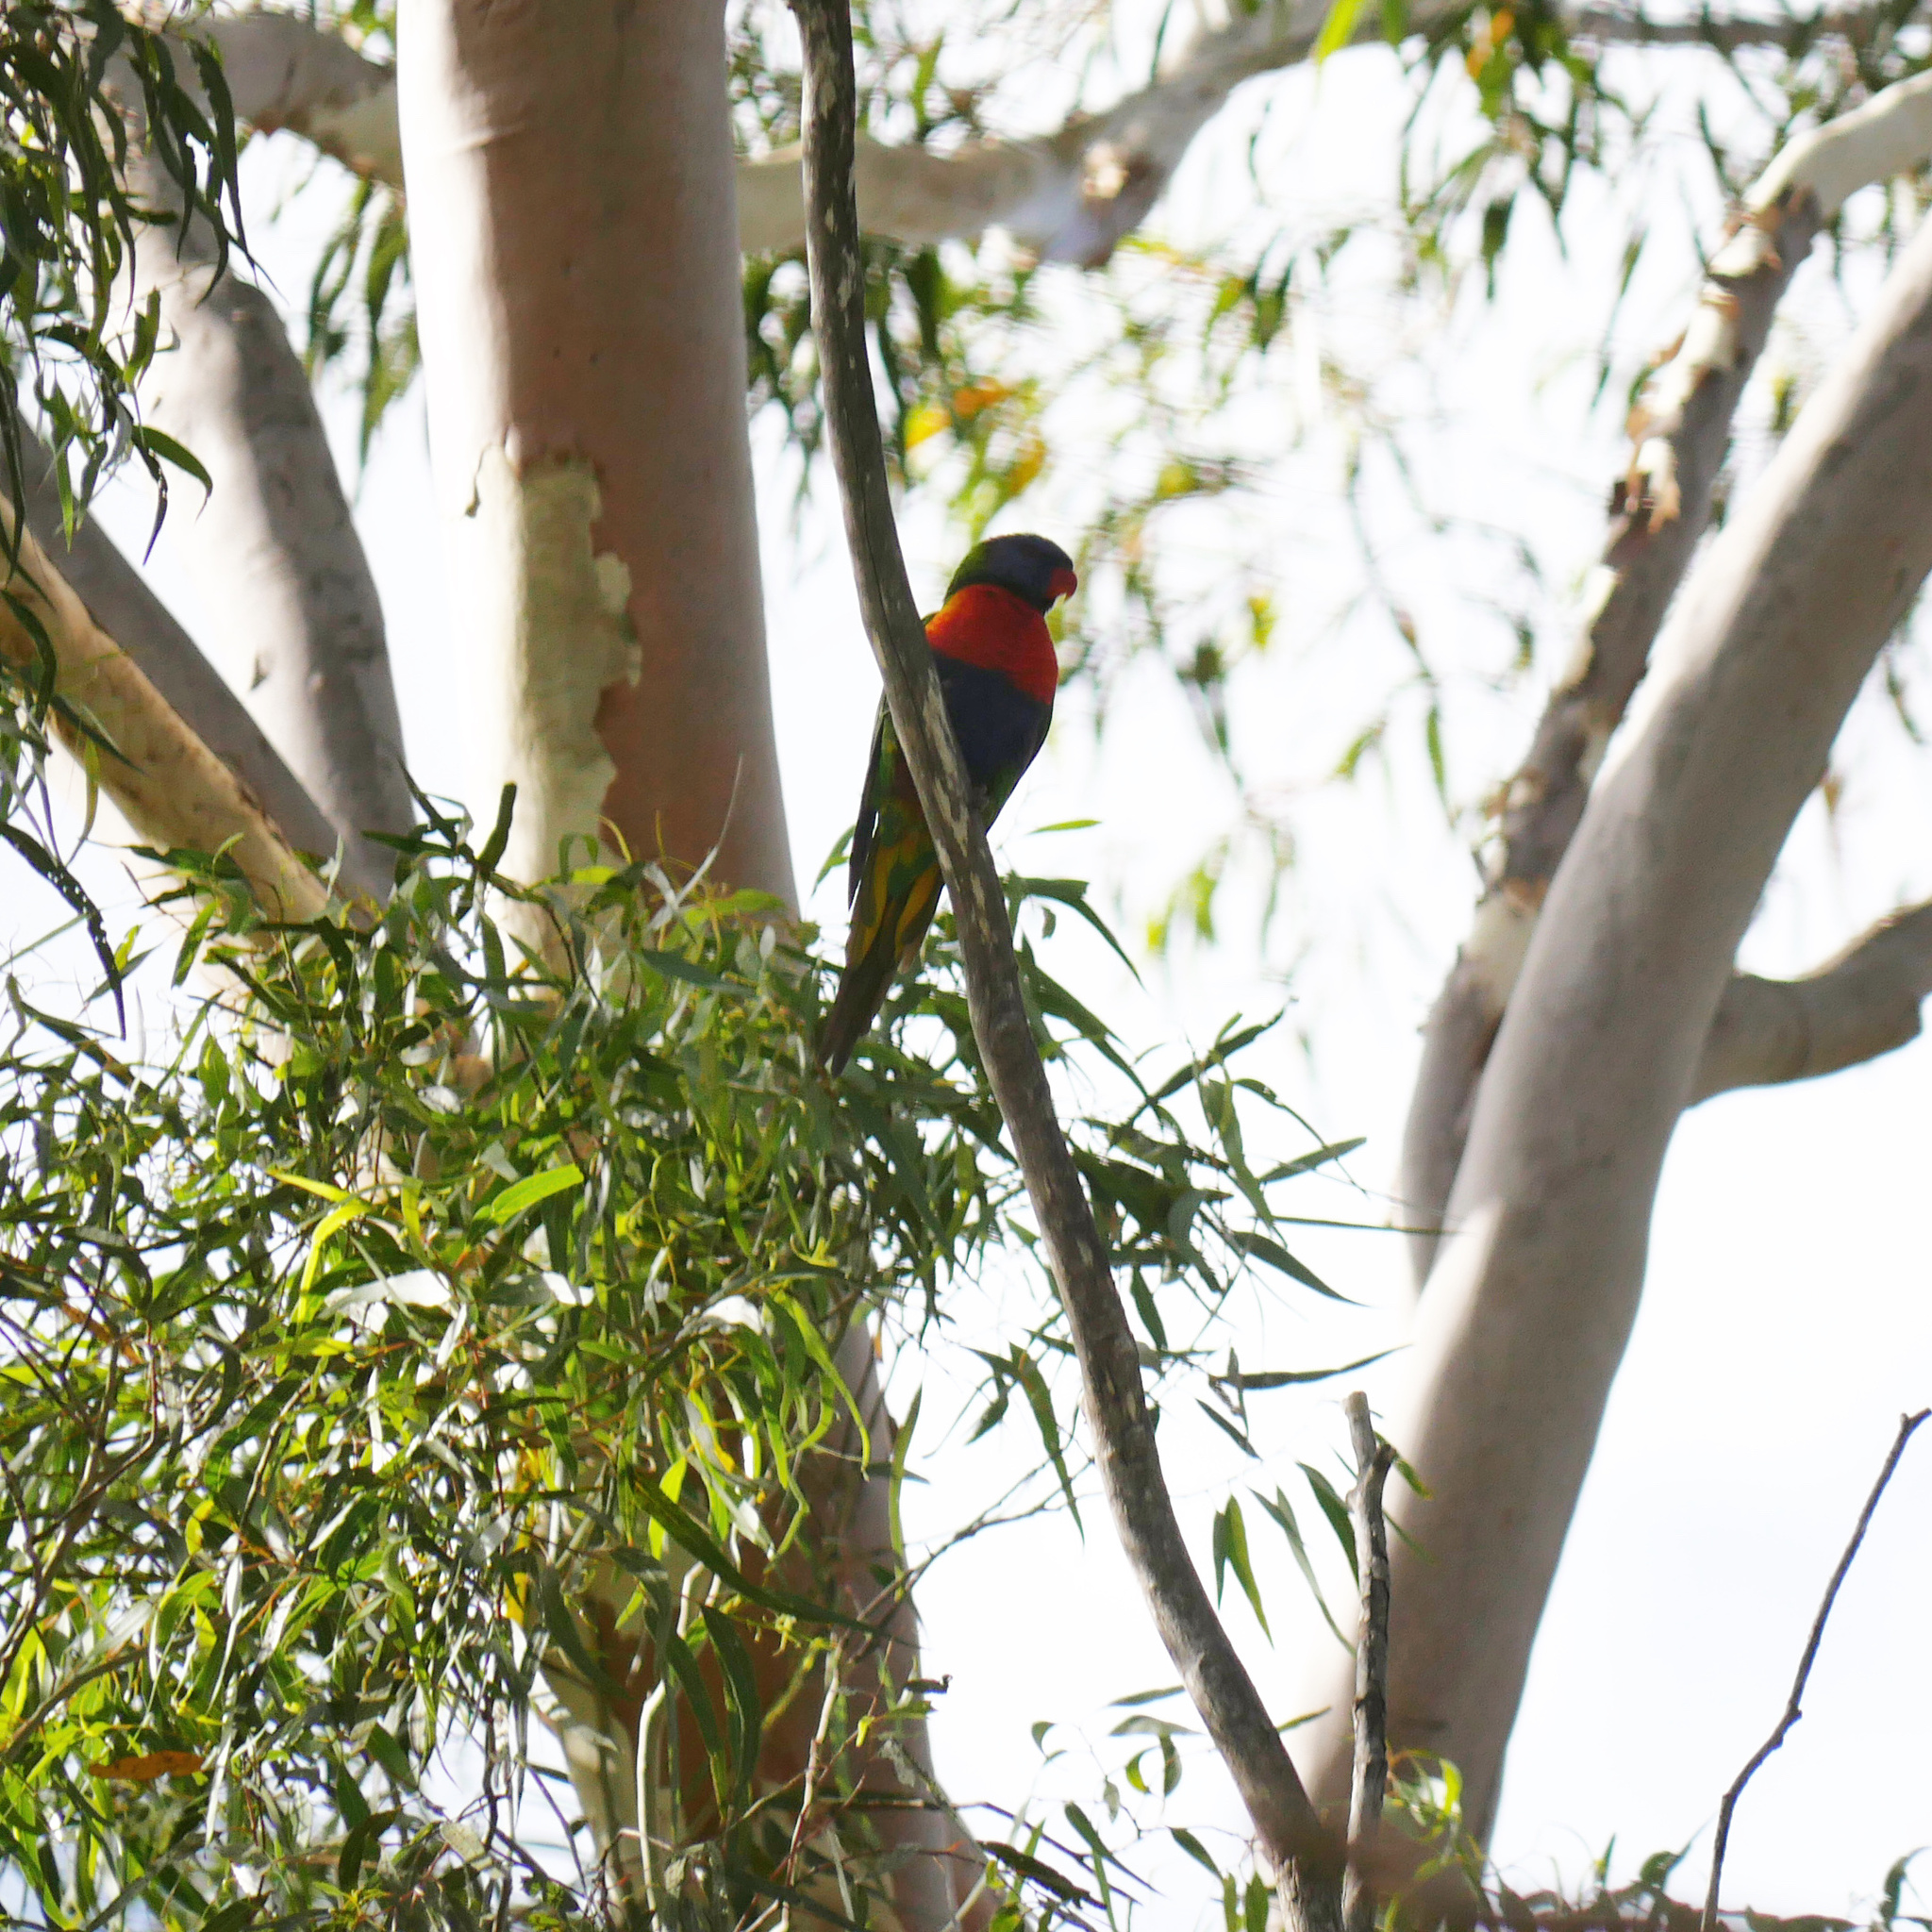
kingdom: Animalia
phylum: Chordata
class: Aves
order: Psittaciformes
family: Psittacidae
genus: Trichoglossus
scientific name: Trichoglossus haematodus
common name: Coconut lorikeet
